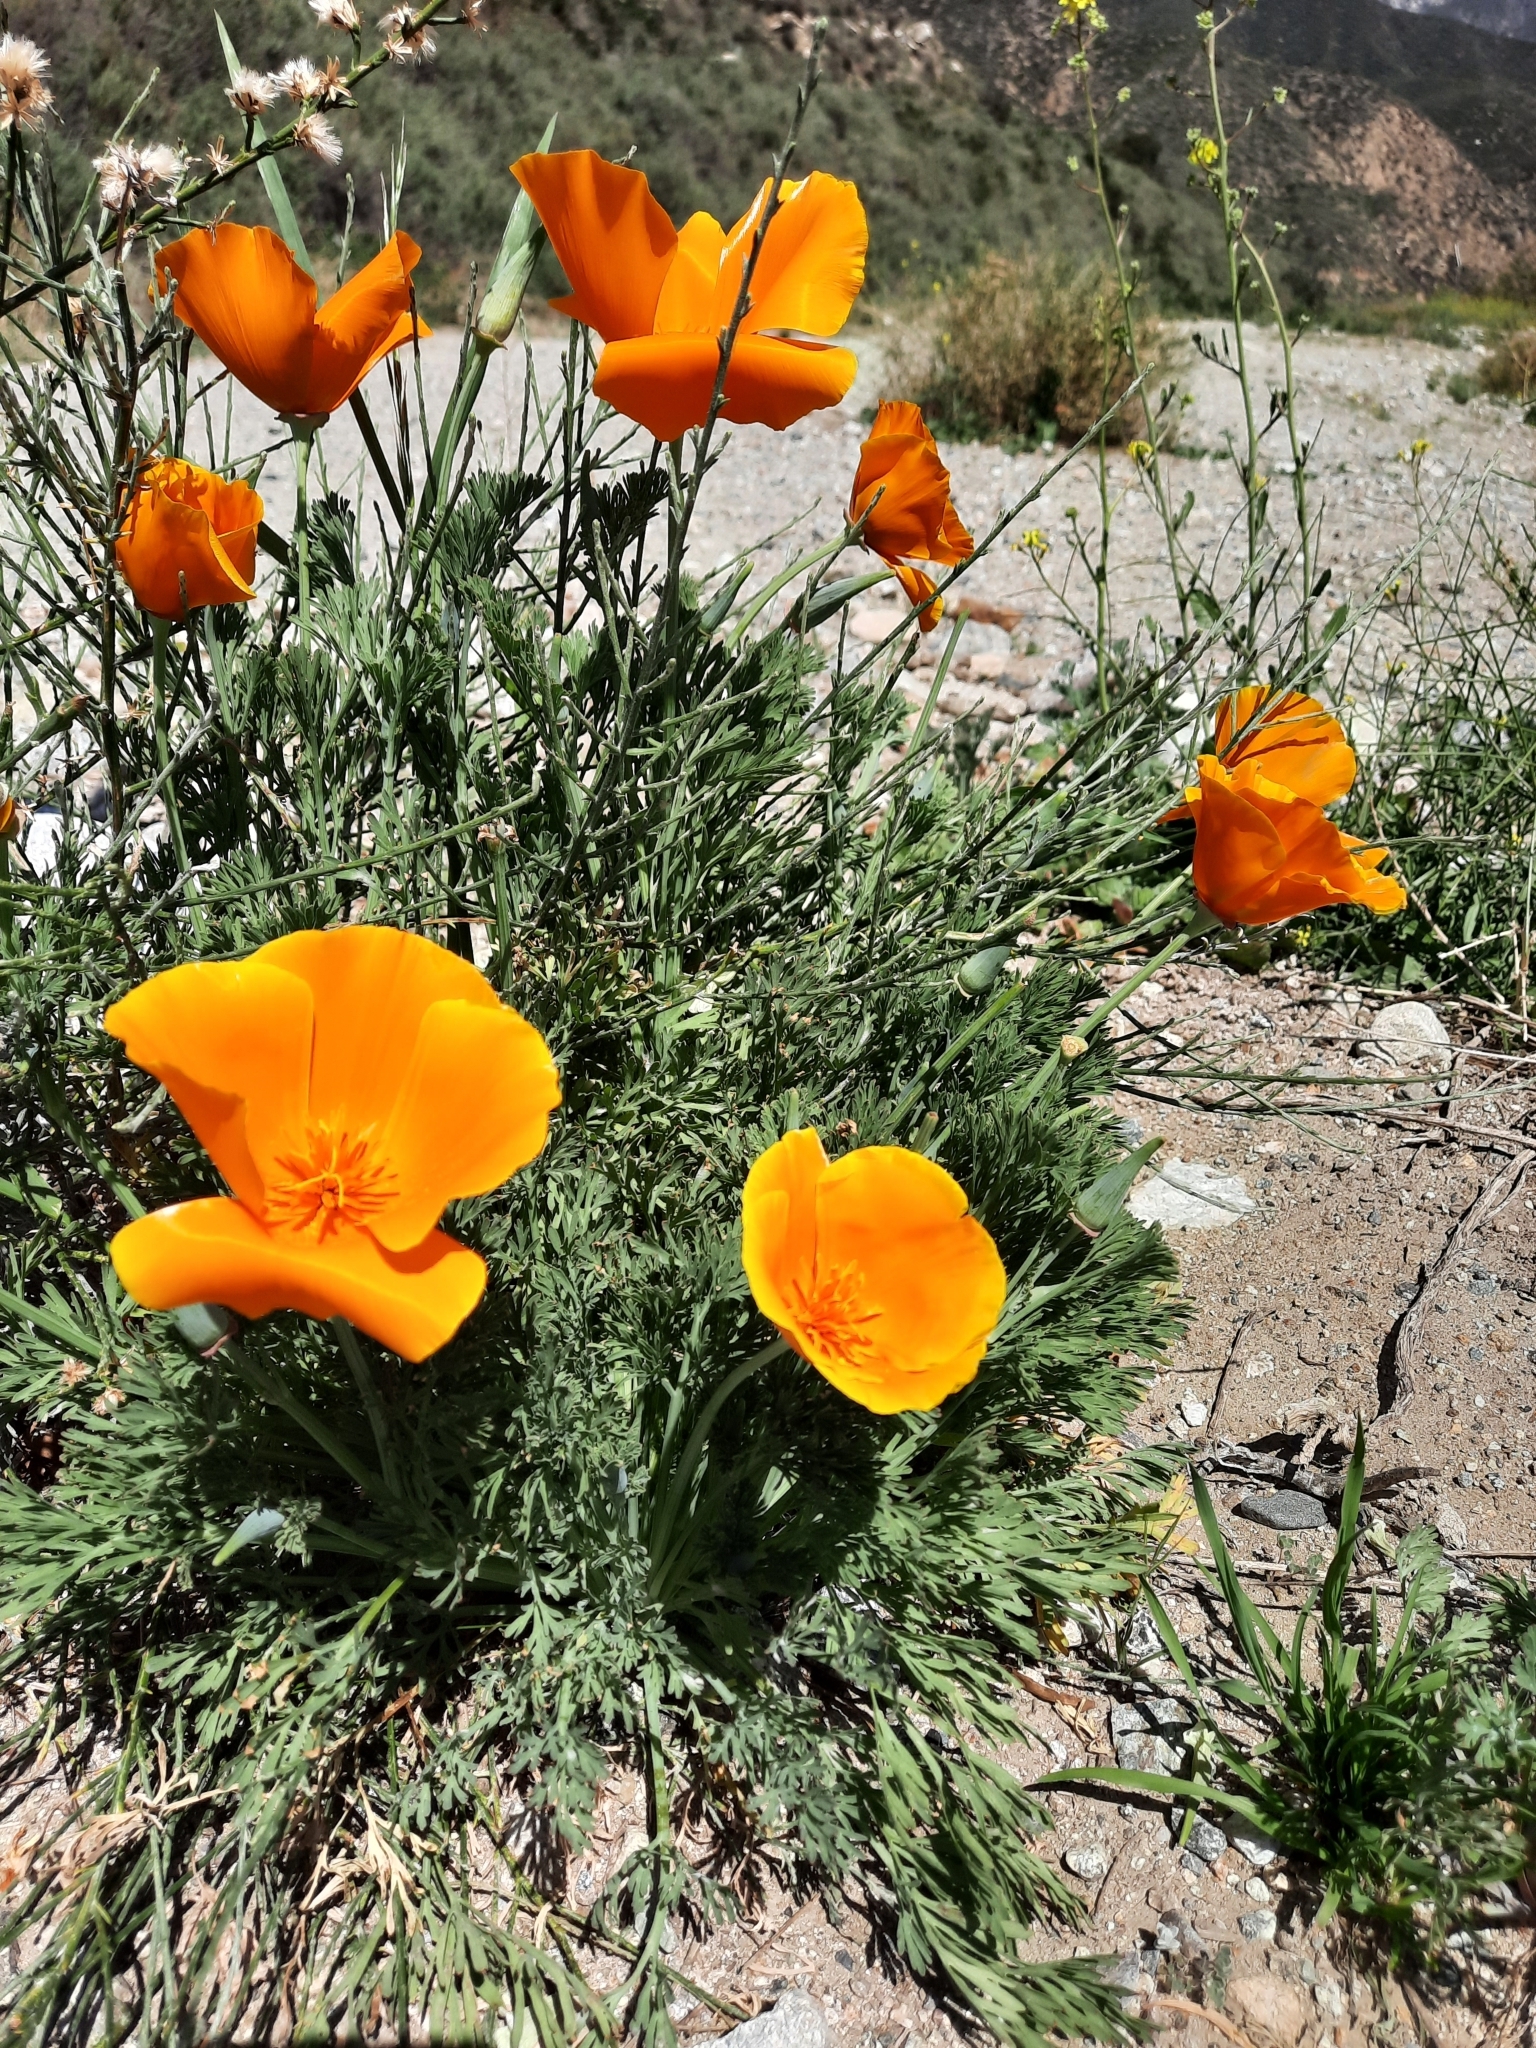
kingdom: Plantae
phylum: Tracheophyta
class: Magnoliopsida
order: Ranunculales
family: Papaveraceae
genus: Eschscholzia
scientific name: Eschscholzia californica
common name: California poppy
